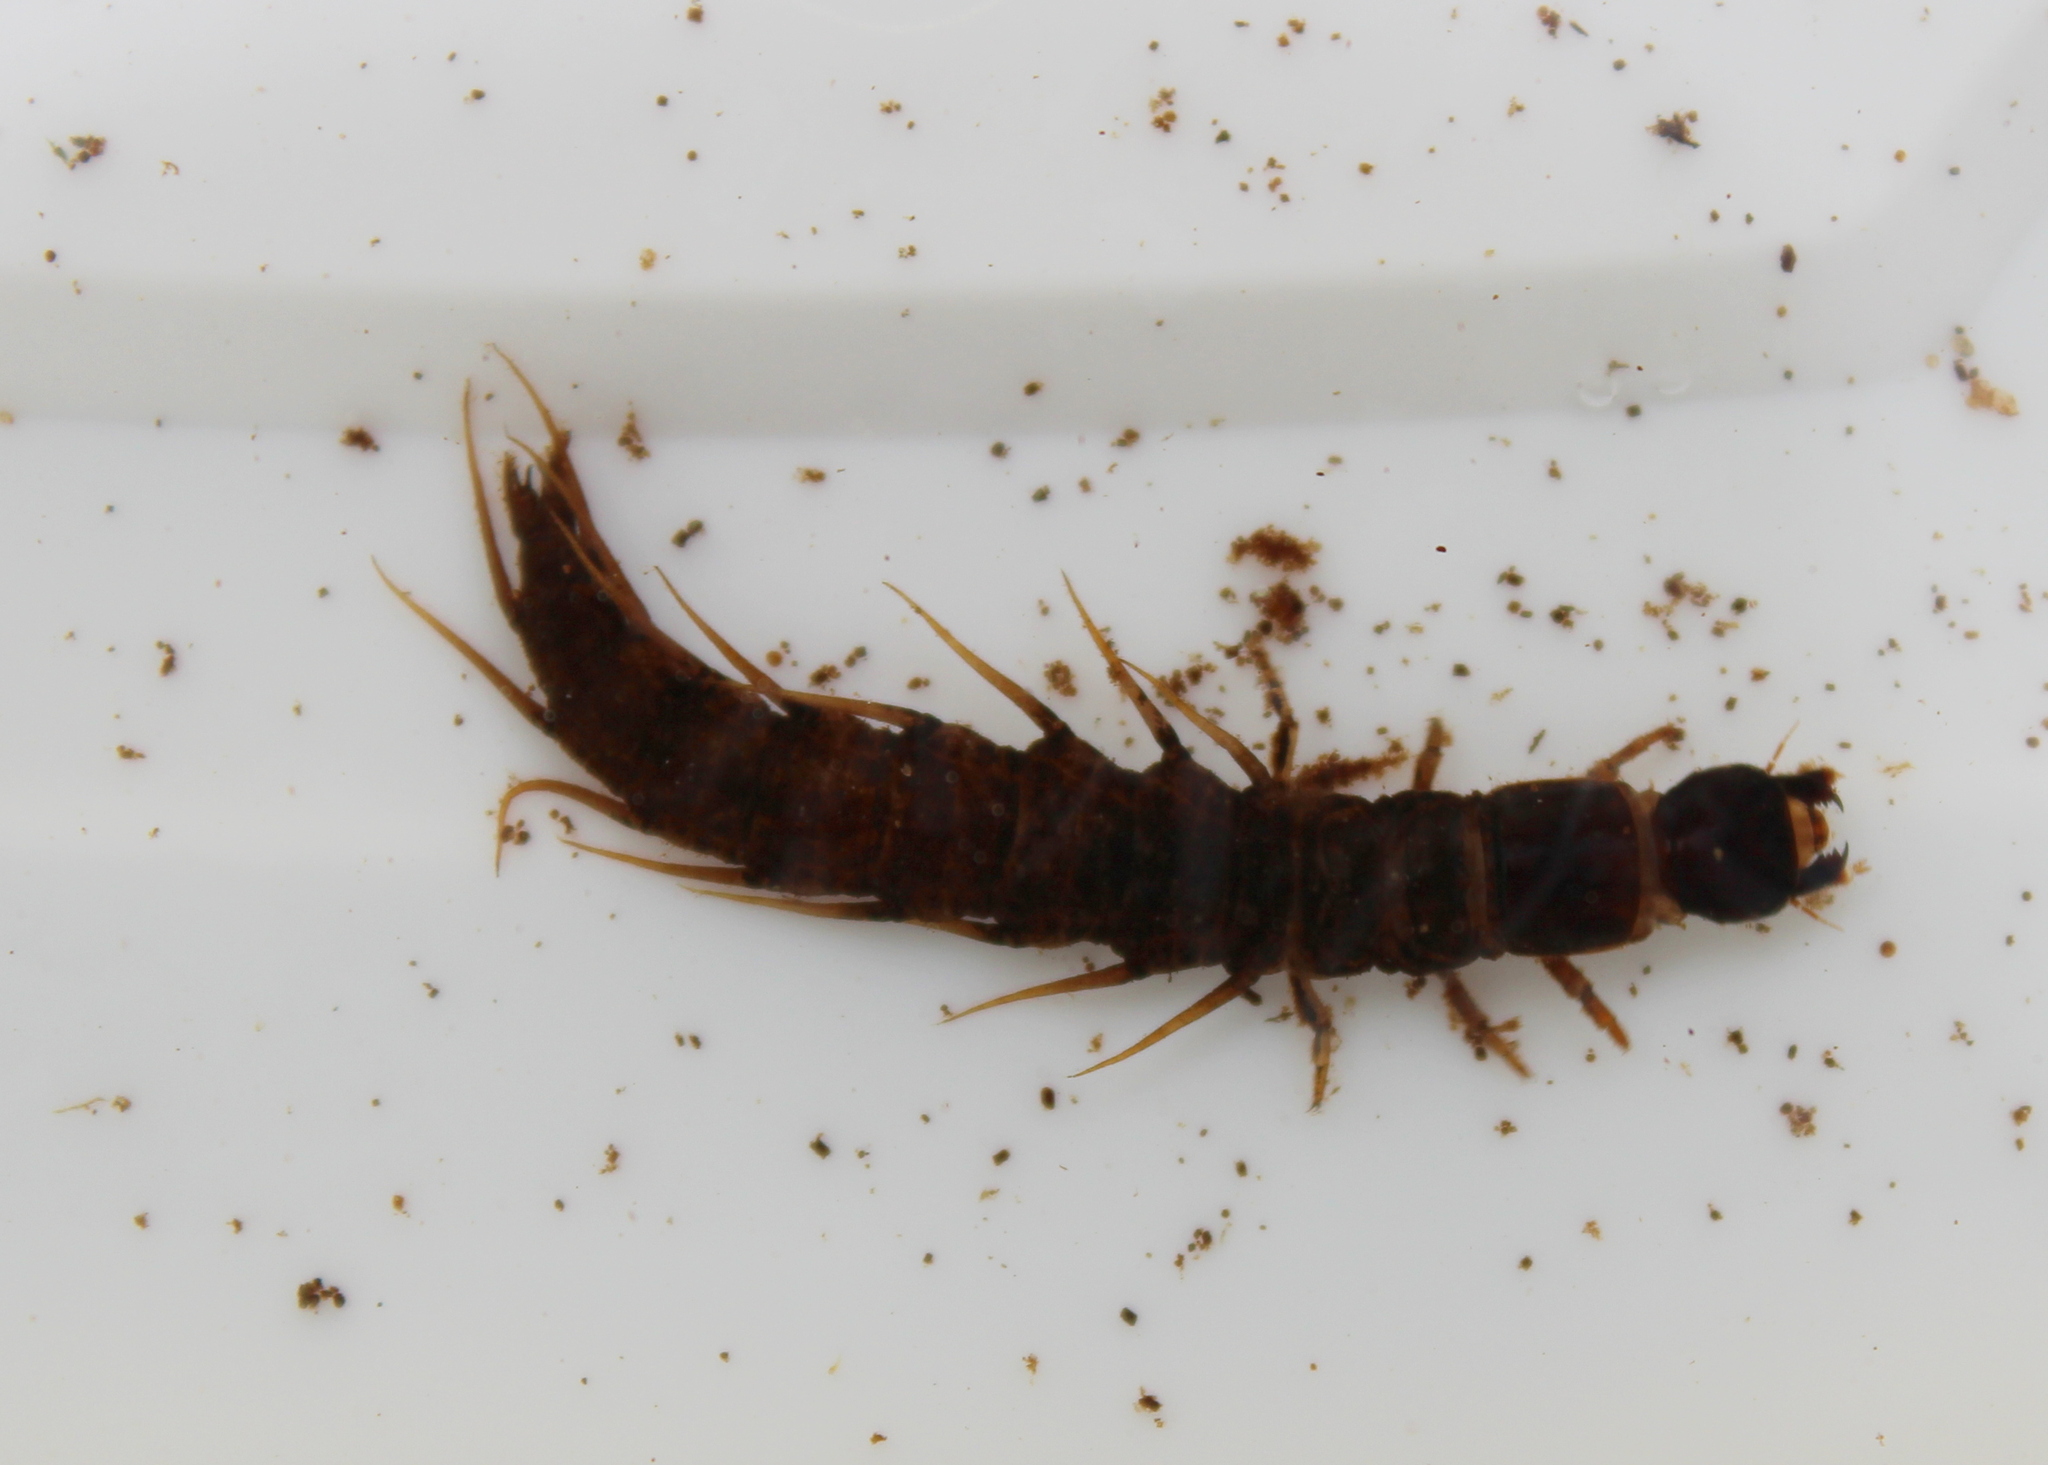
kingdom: Animalia
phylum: Arthropoda
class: Insecta
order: Megaloptera
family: Corydalidae
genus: Nigronia
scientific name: Nigronia serricornis
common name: Serrate dark fishfly
